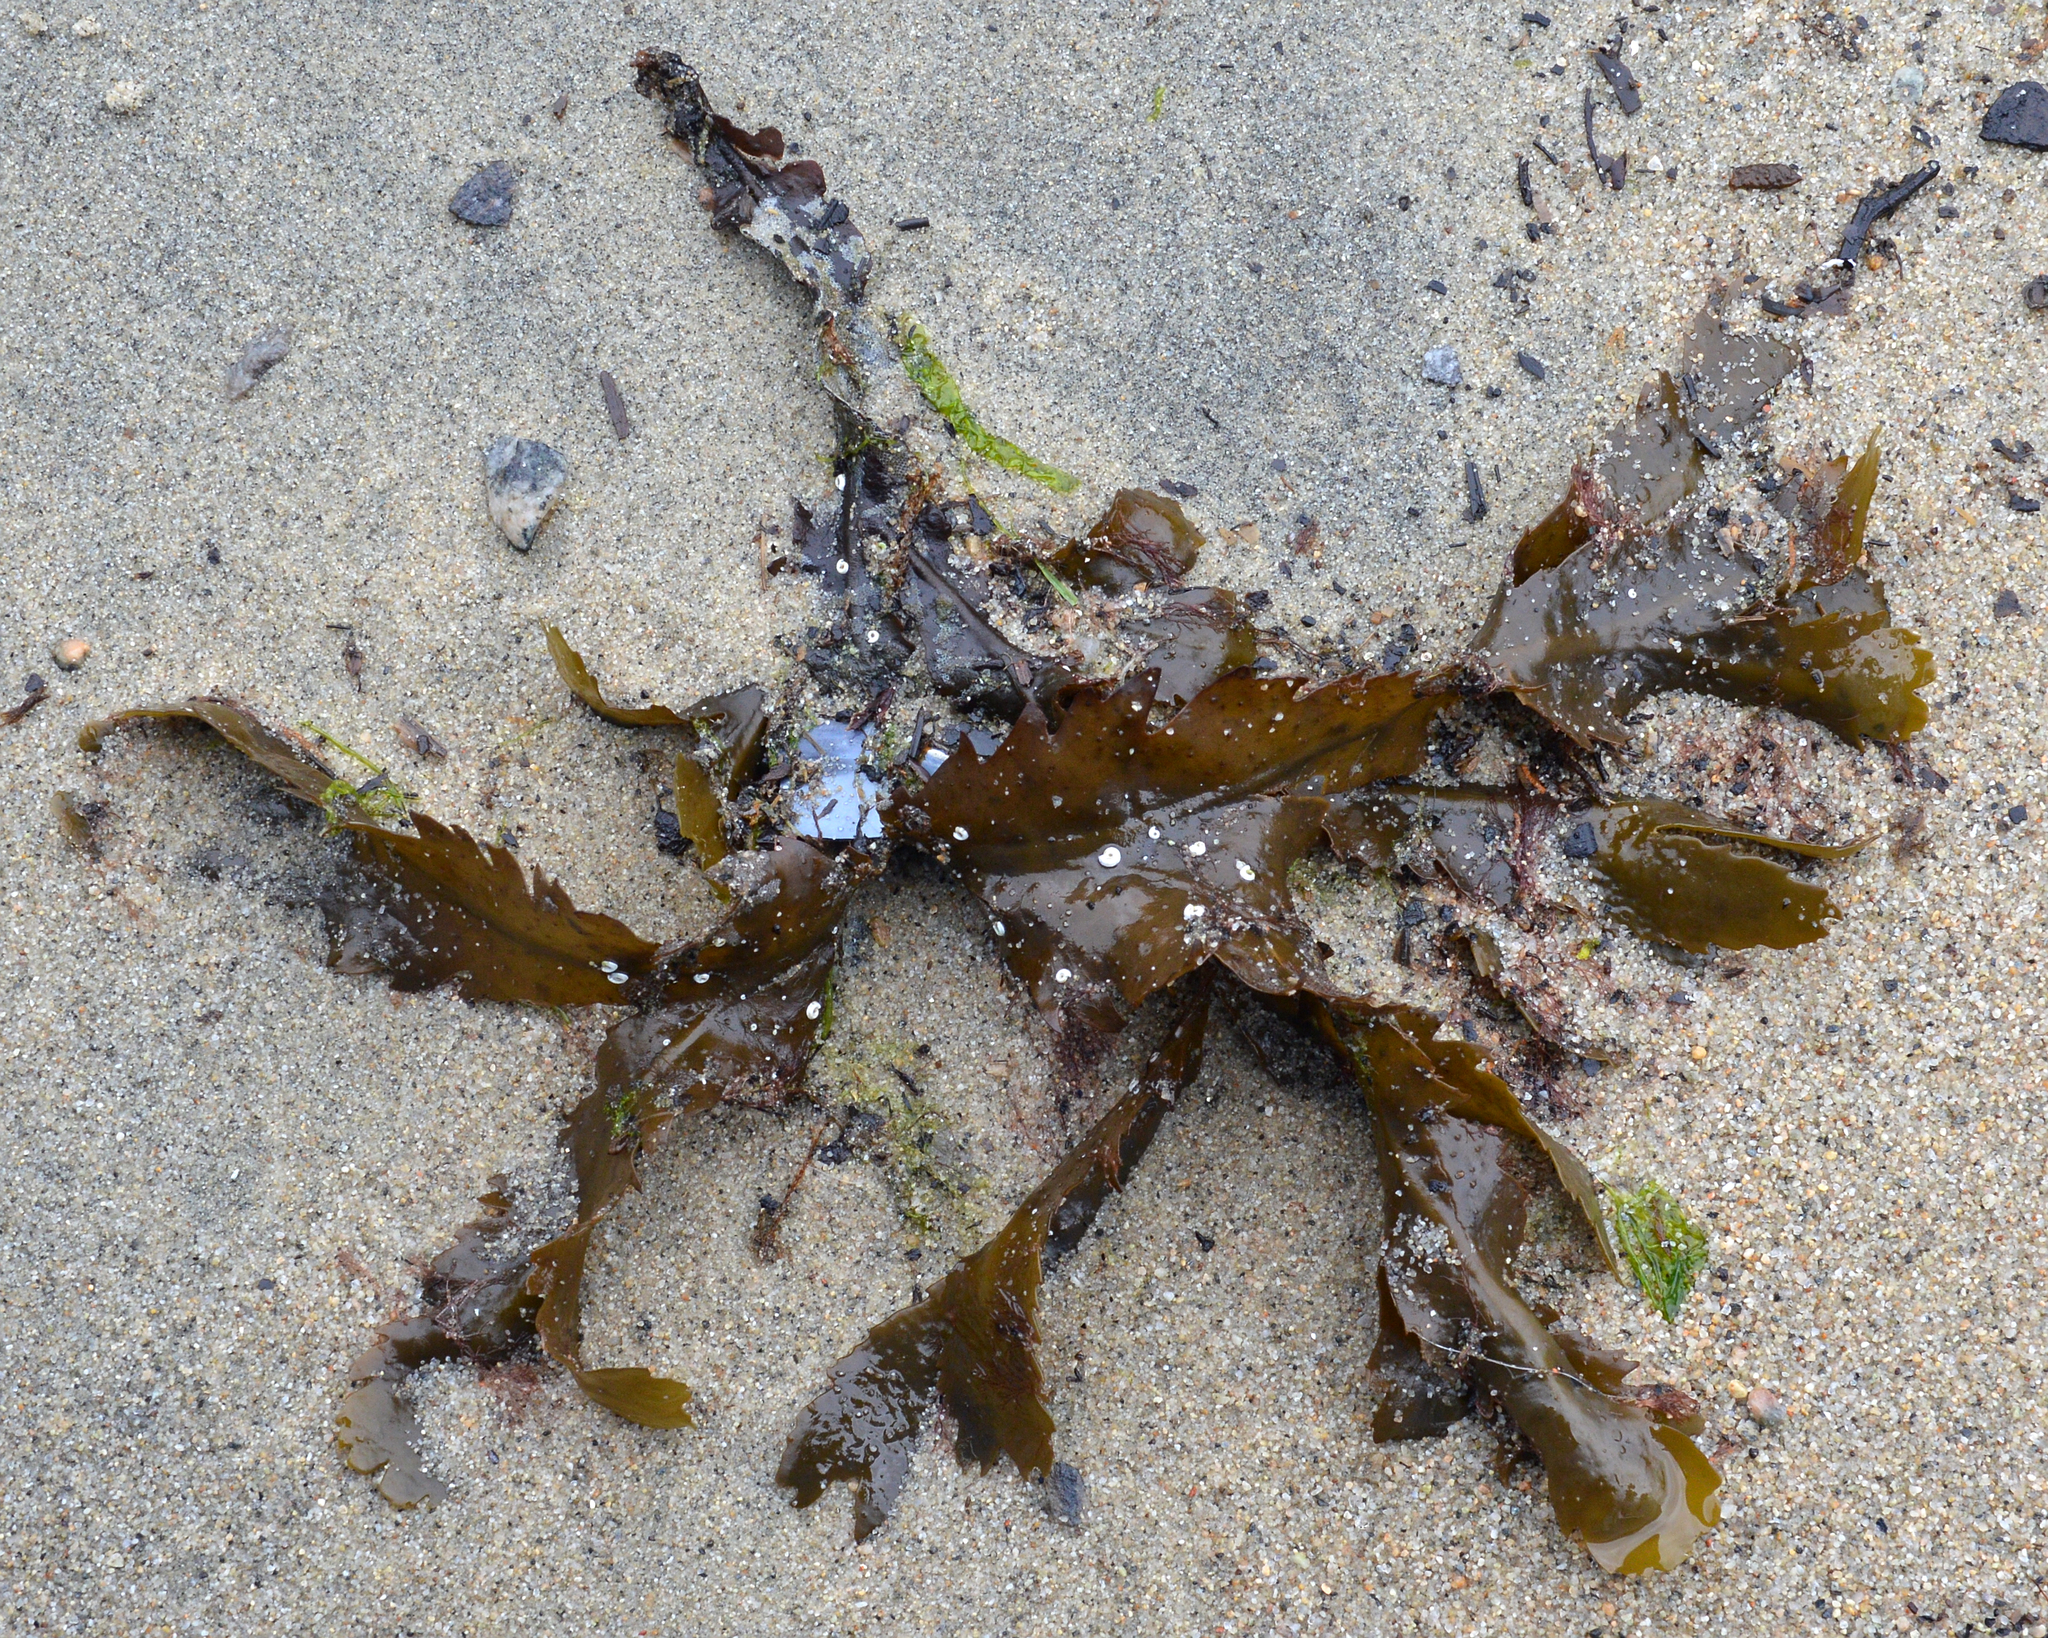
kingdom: Chromista
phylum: Ochrophyta
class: Phaeophyceae
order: Fucales
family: Fucaceae
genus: Fucus
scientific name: Fucus serratus
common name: Toothed wrack
